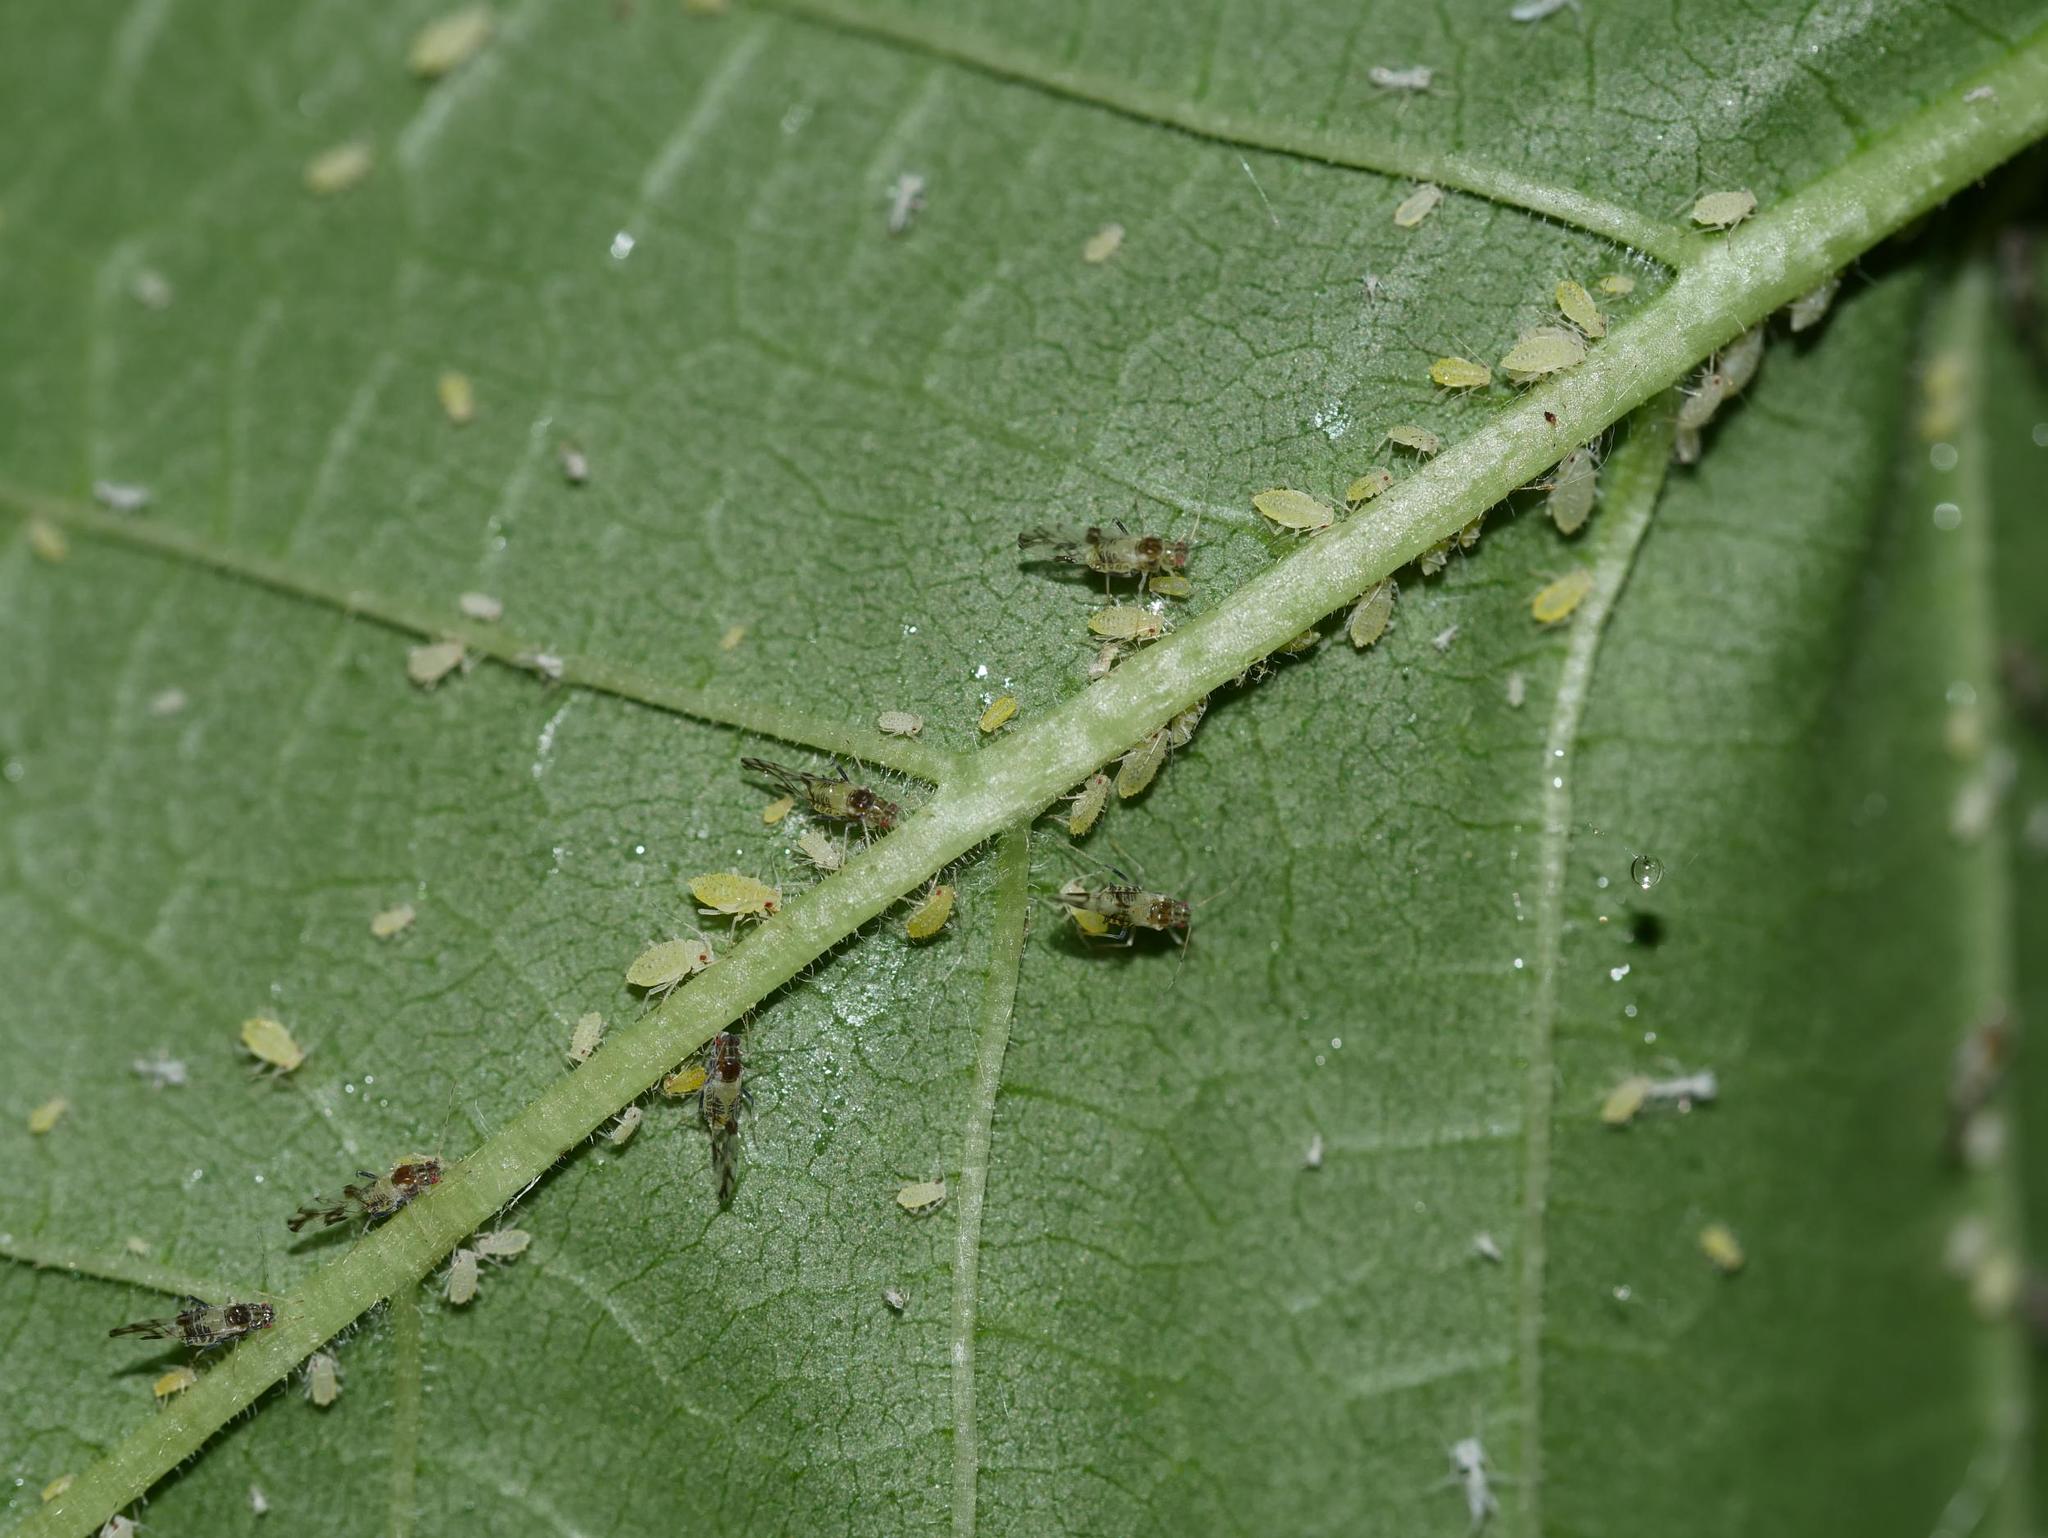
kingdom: Animalia
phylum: Arthropoda
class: Insecta
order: Hemiptera
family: Aphididae
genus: Tinocallis
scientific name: Tinocallis platani
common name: Elm aphid
